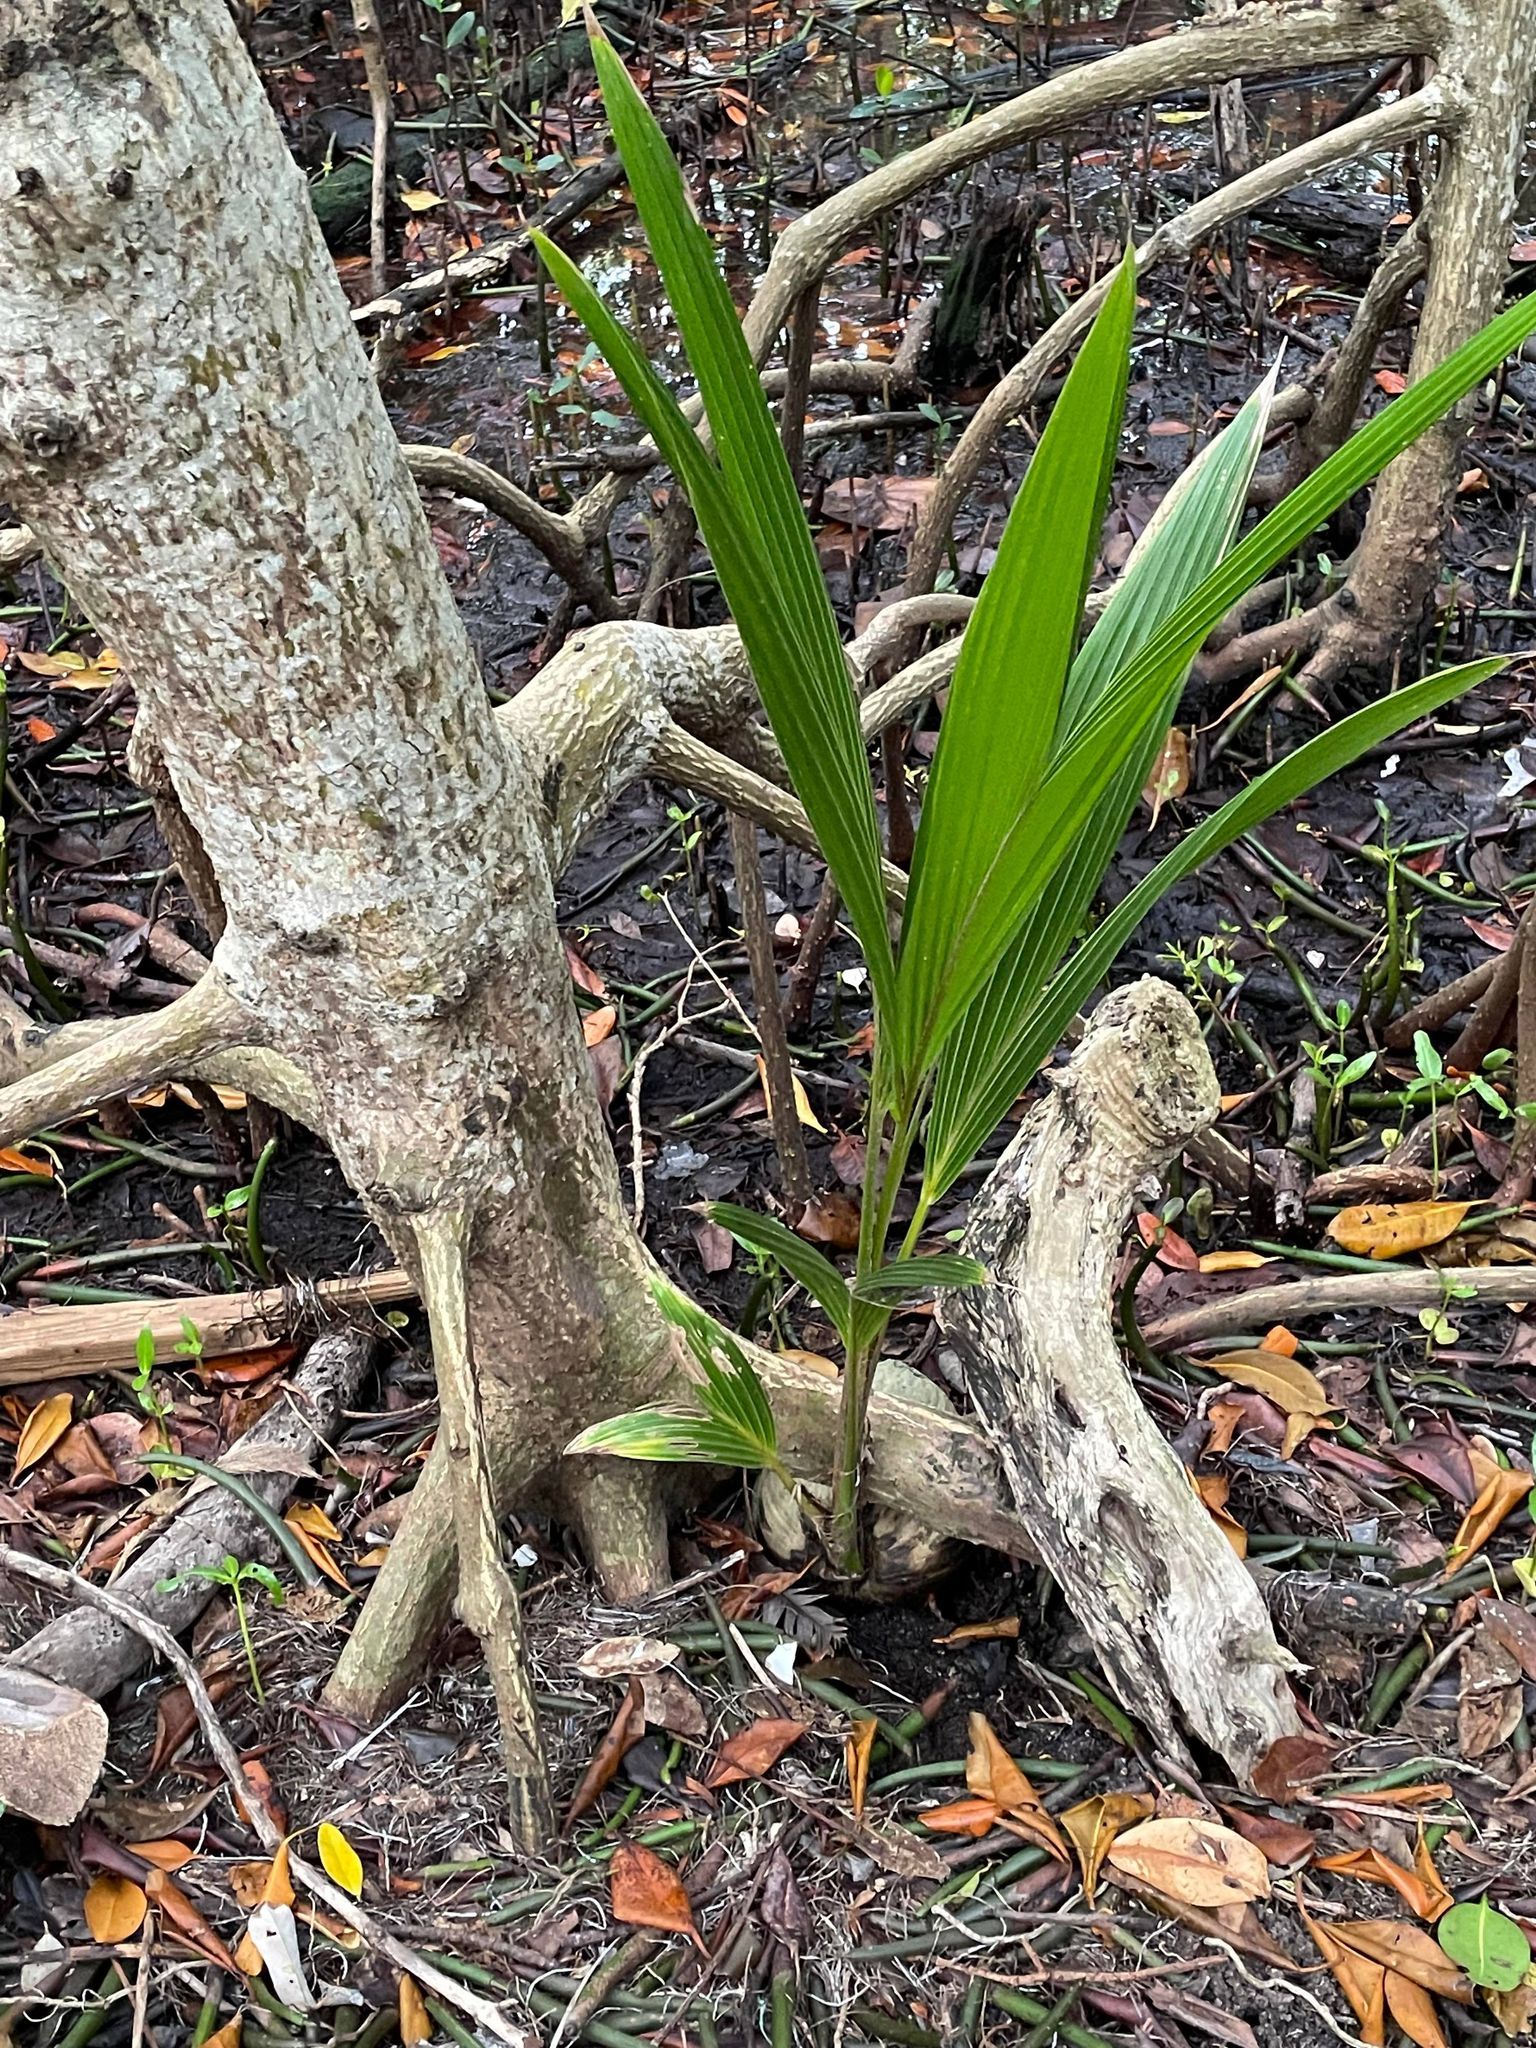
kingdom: Plantae
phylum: Tracheophyta
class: Liliopsida
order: Arecales
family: Arecaceae
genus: Cocos
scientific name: Cocos nucifera
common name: Coconut palm
